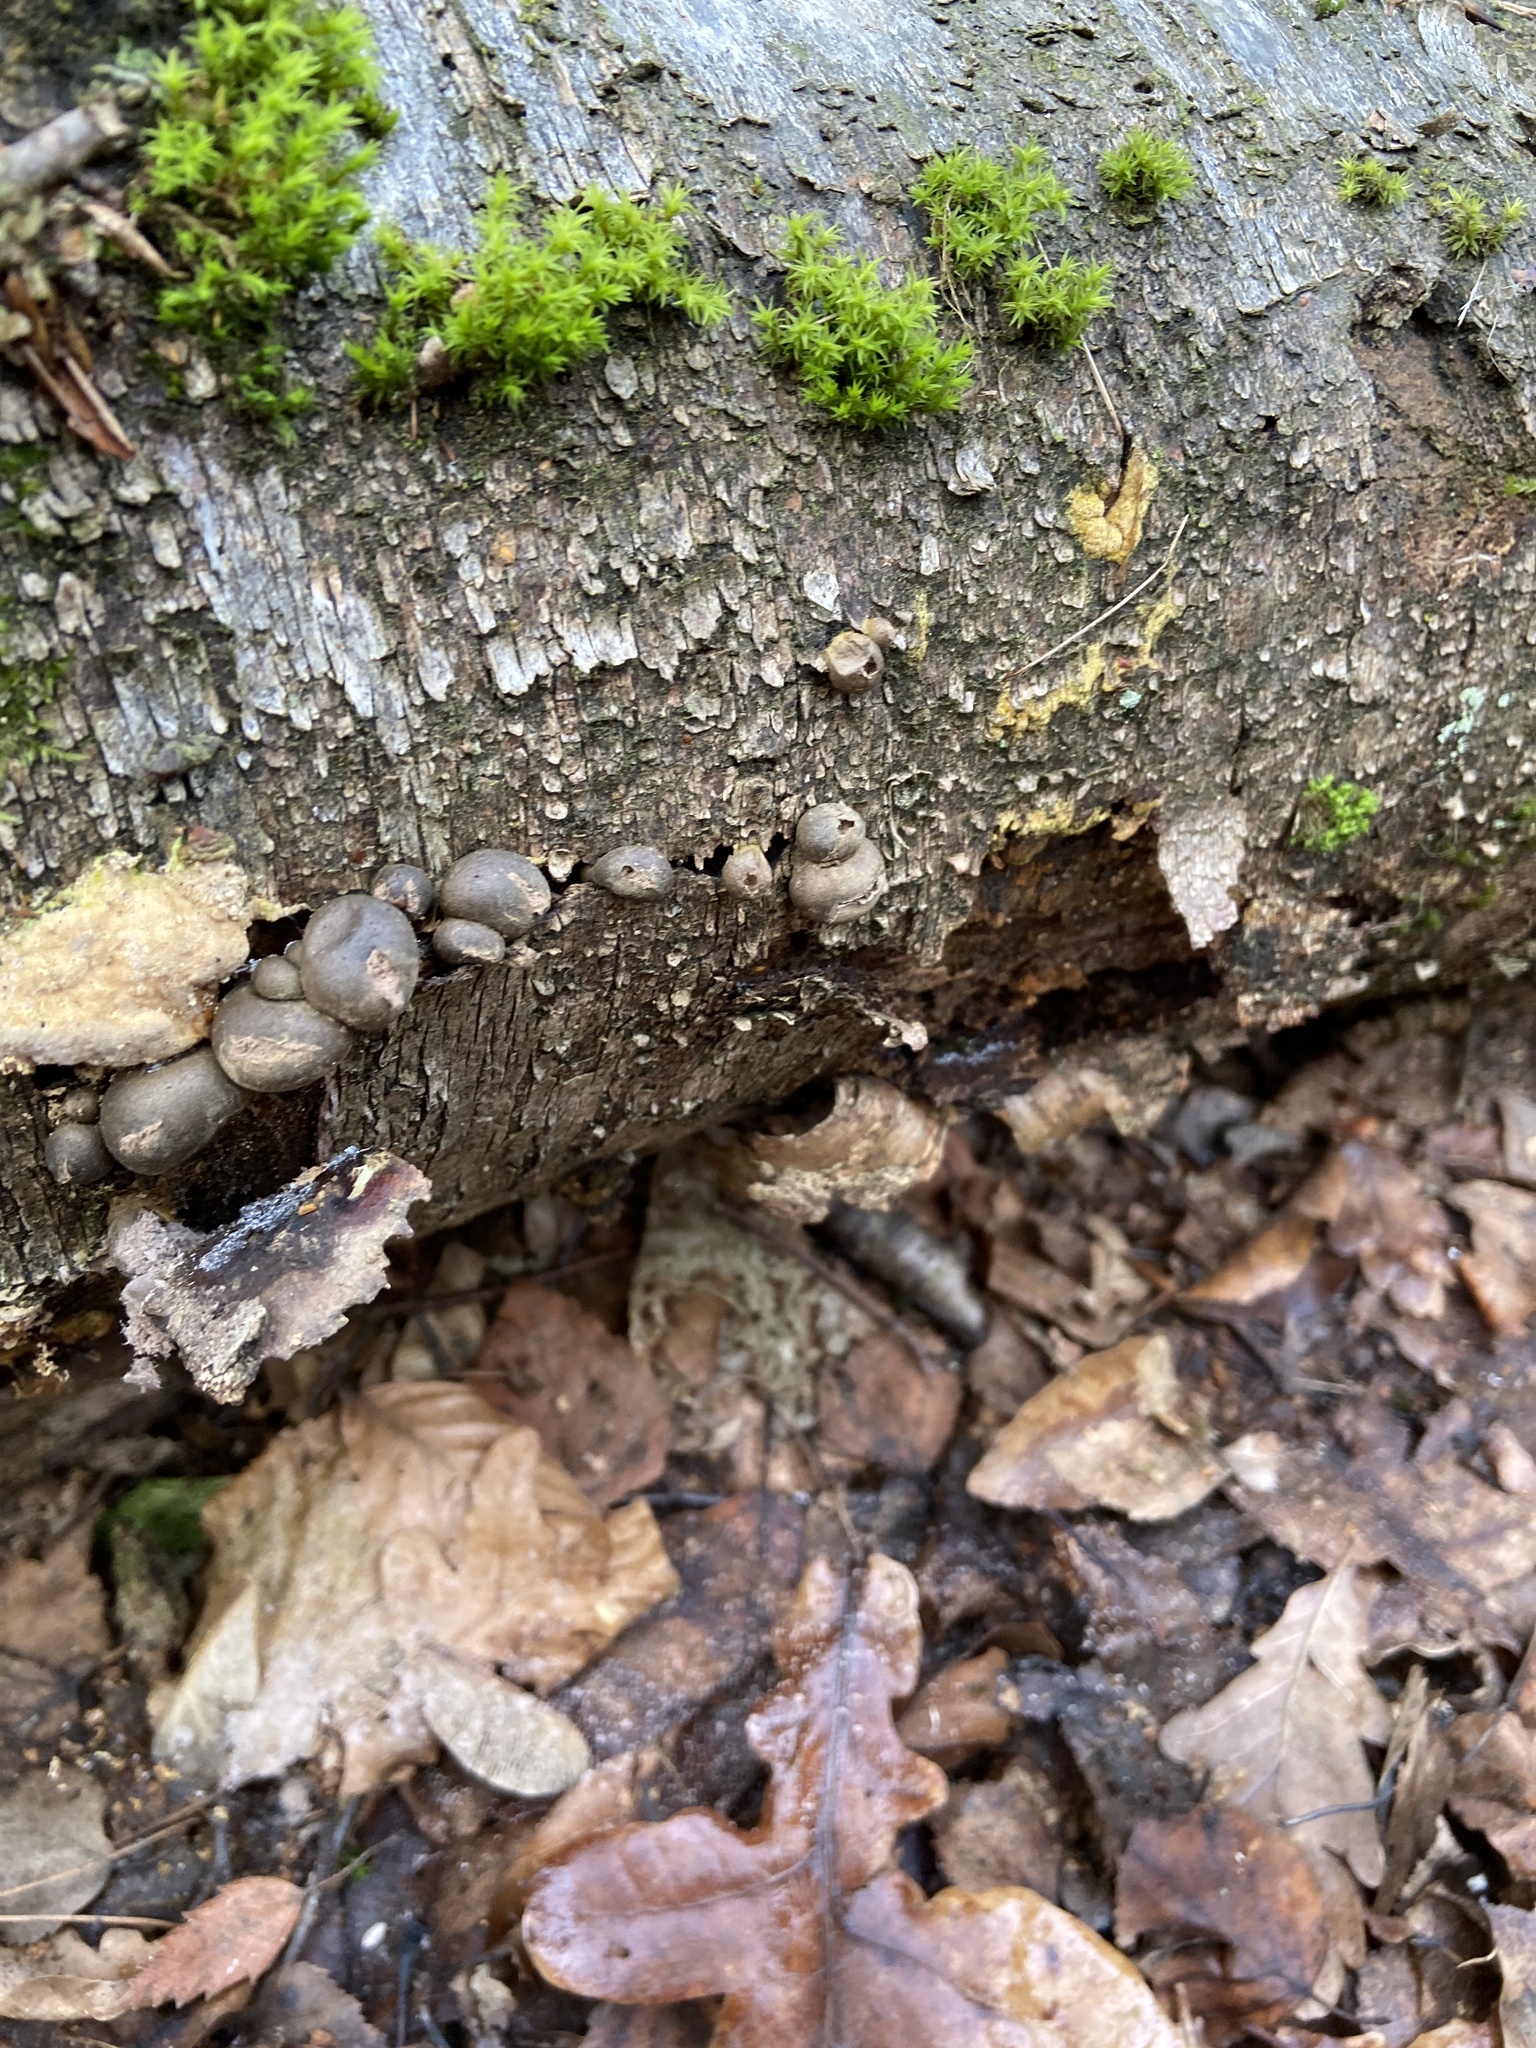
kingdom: Protozoa
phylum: Mycetozoa
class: Myxomycetes
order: Cribrariales
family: Tubiferaceae
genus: Lycogala
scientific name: Lycogala epidendrum
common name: Wolf's milk
